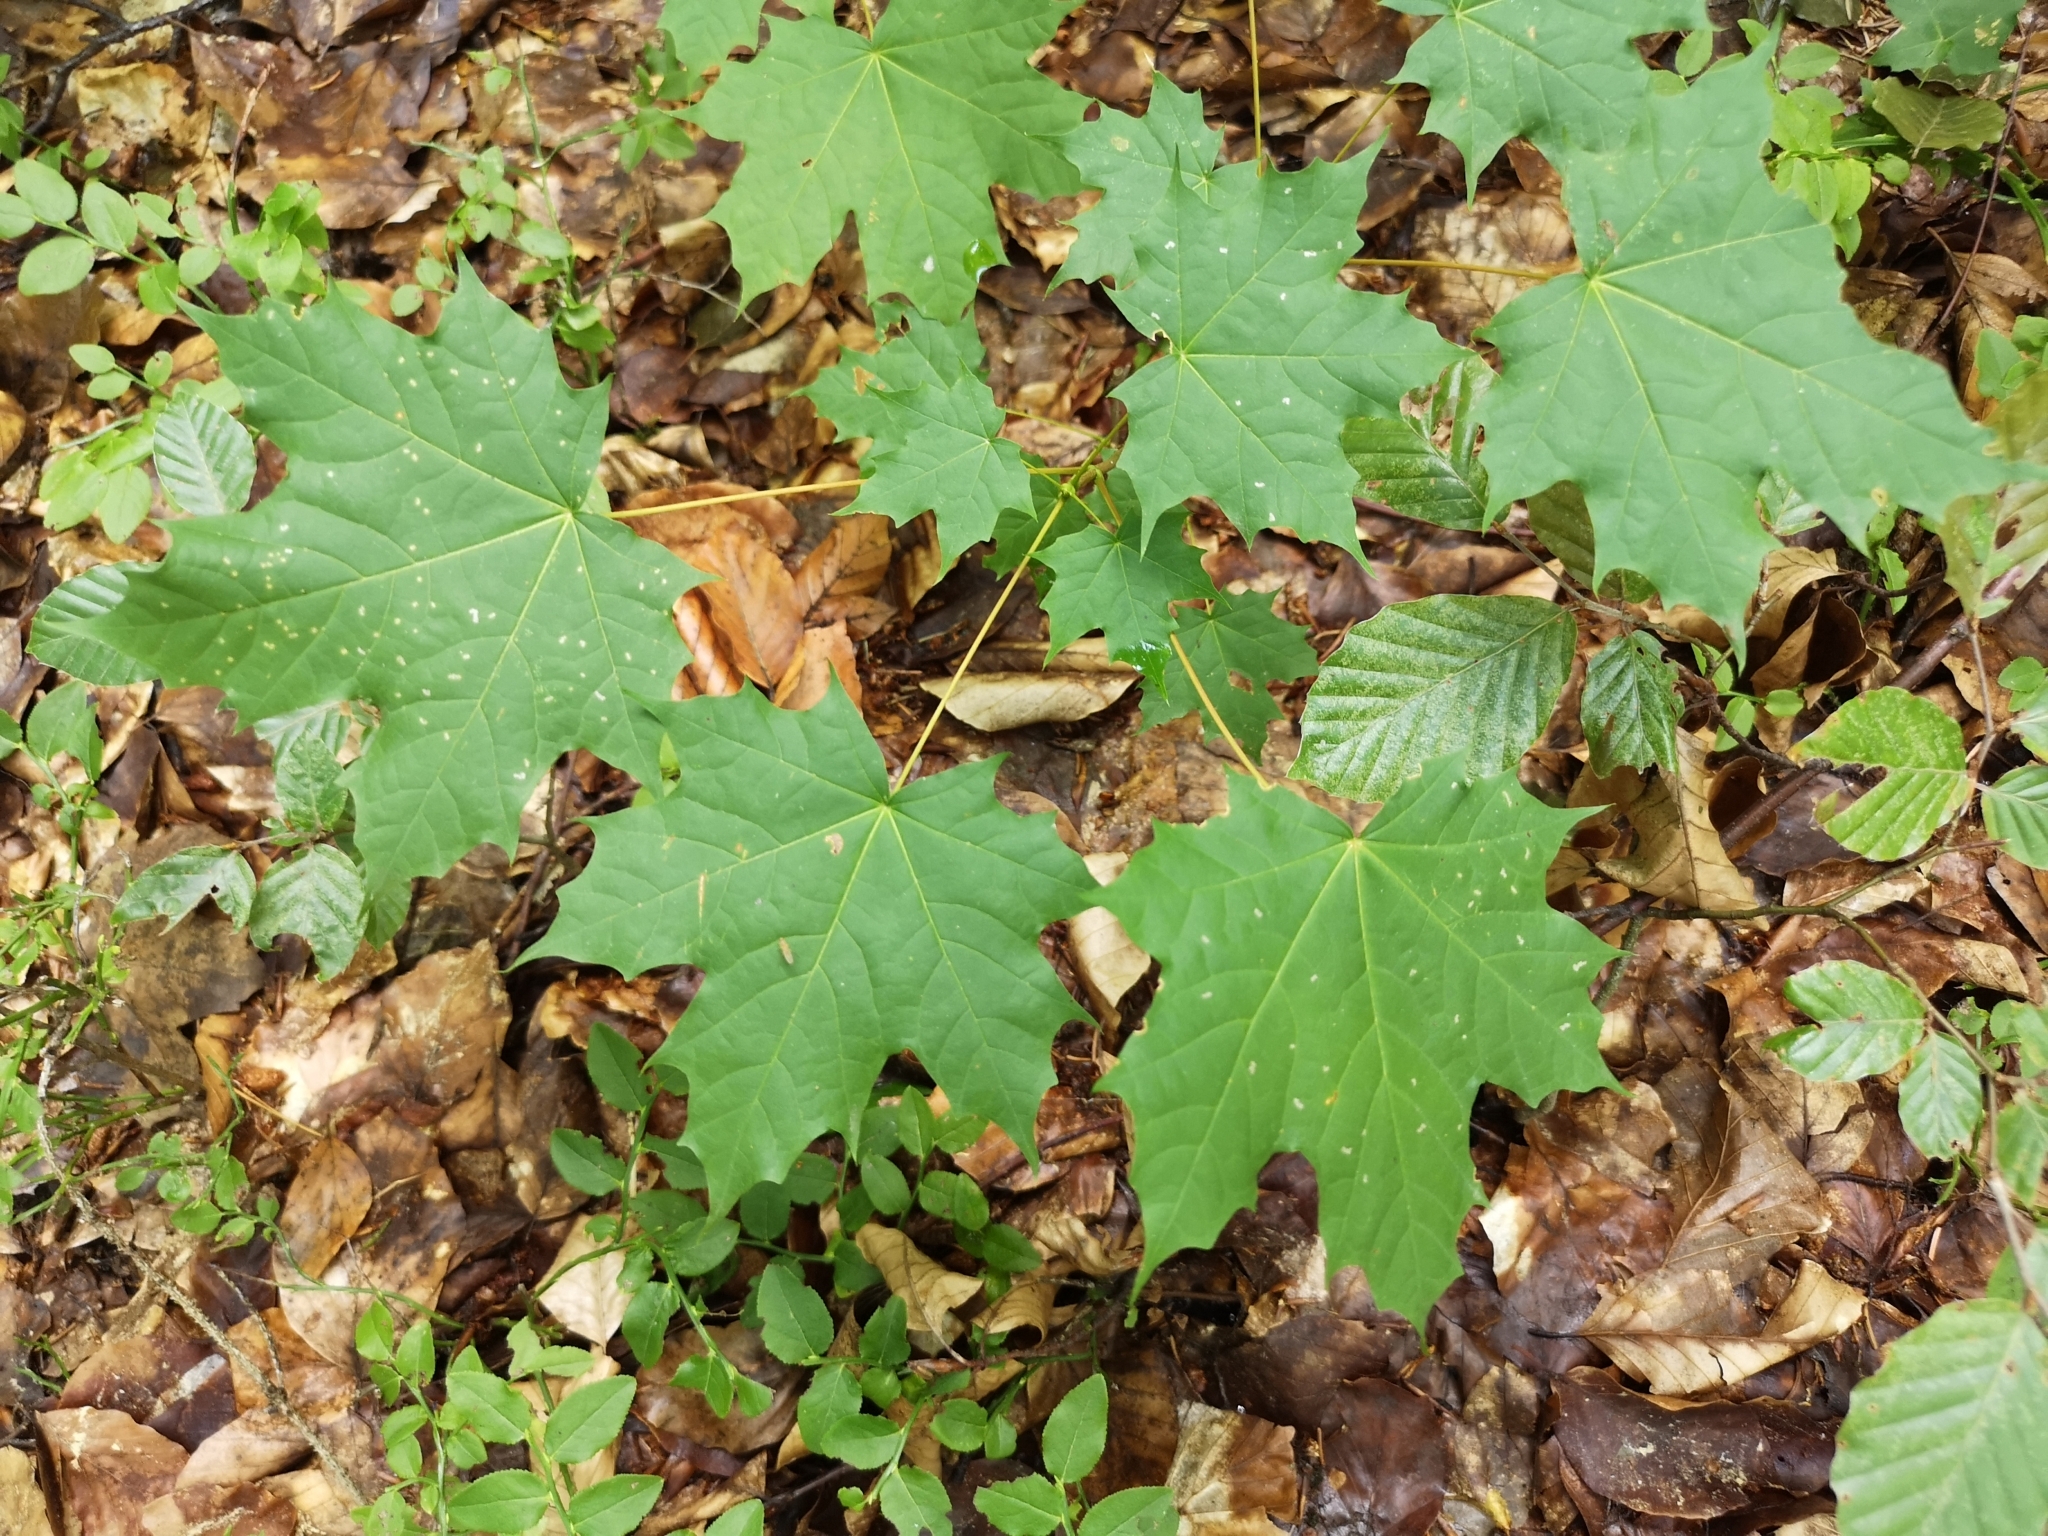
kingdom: Plantae
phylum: Tracheophyta
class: Magnoliopsida
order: Sapindales
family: Sapindaceae
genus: Acer
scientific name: Acer platanoides
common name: Norway maple
